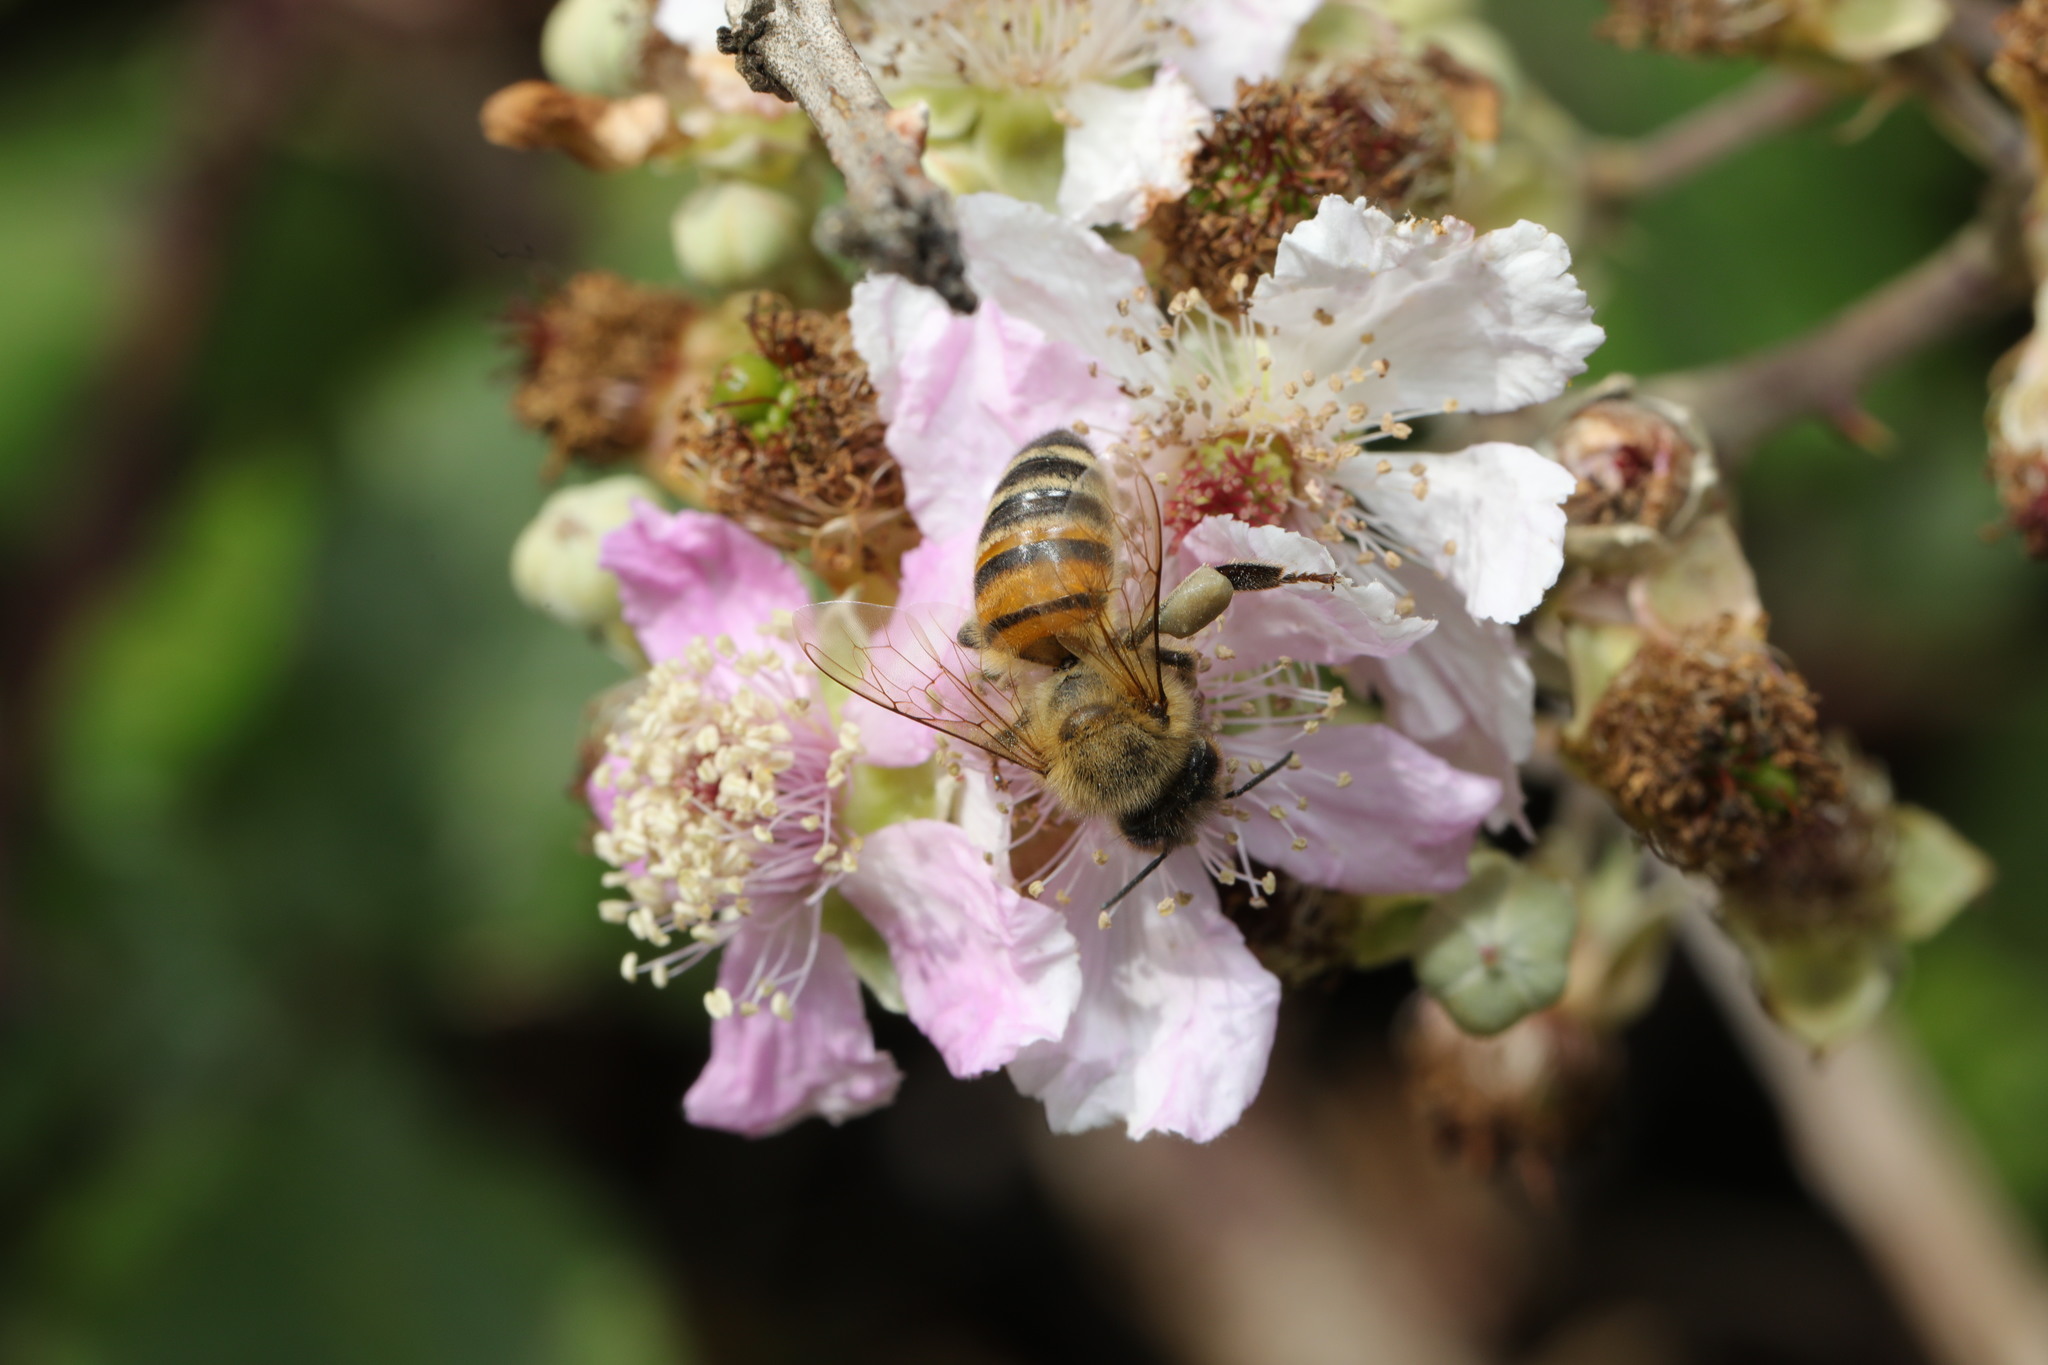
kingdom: Animalia
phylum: Arthropoda
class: Insecta
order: Hymenoptera
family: Apidae
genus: Apis
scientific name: Apis mellifera
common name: Honey bee
